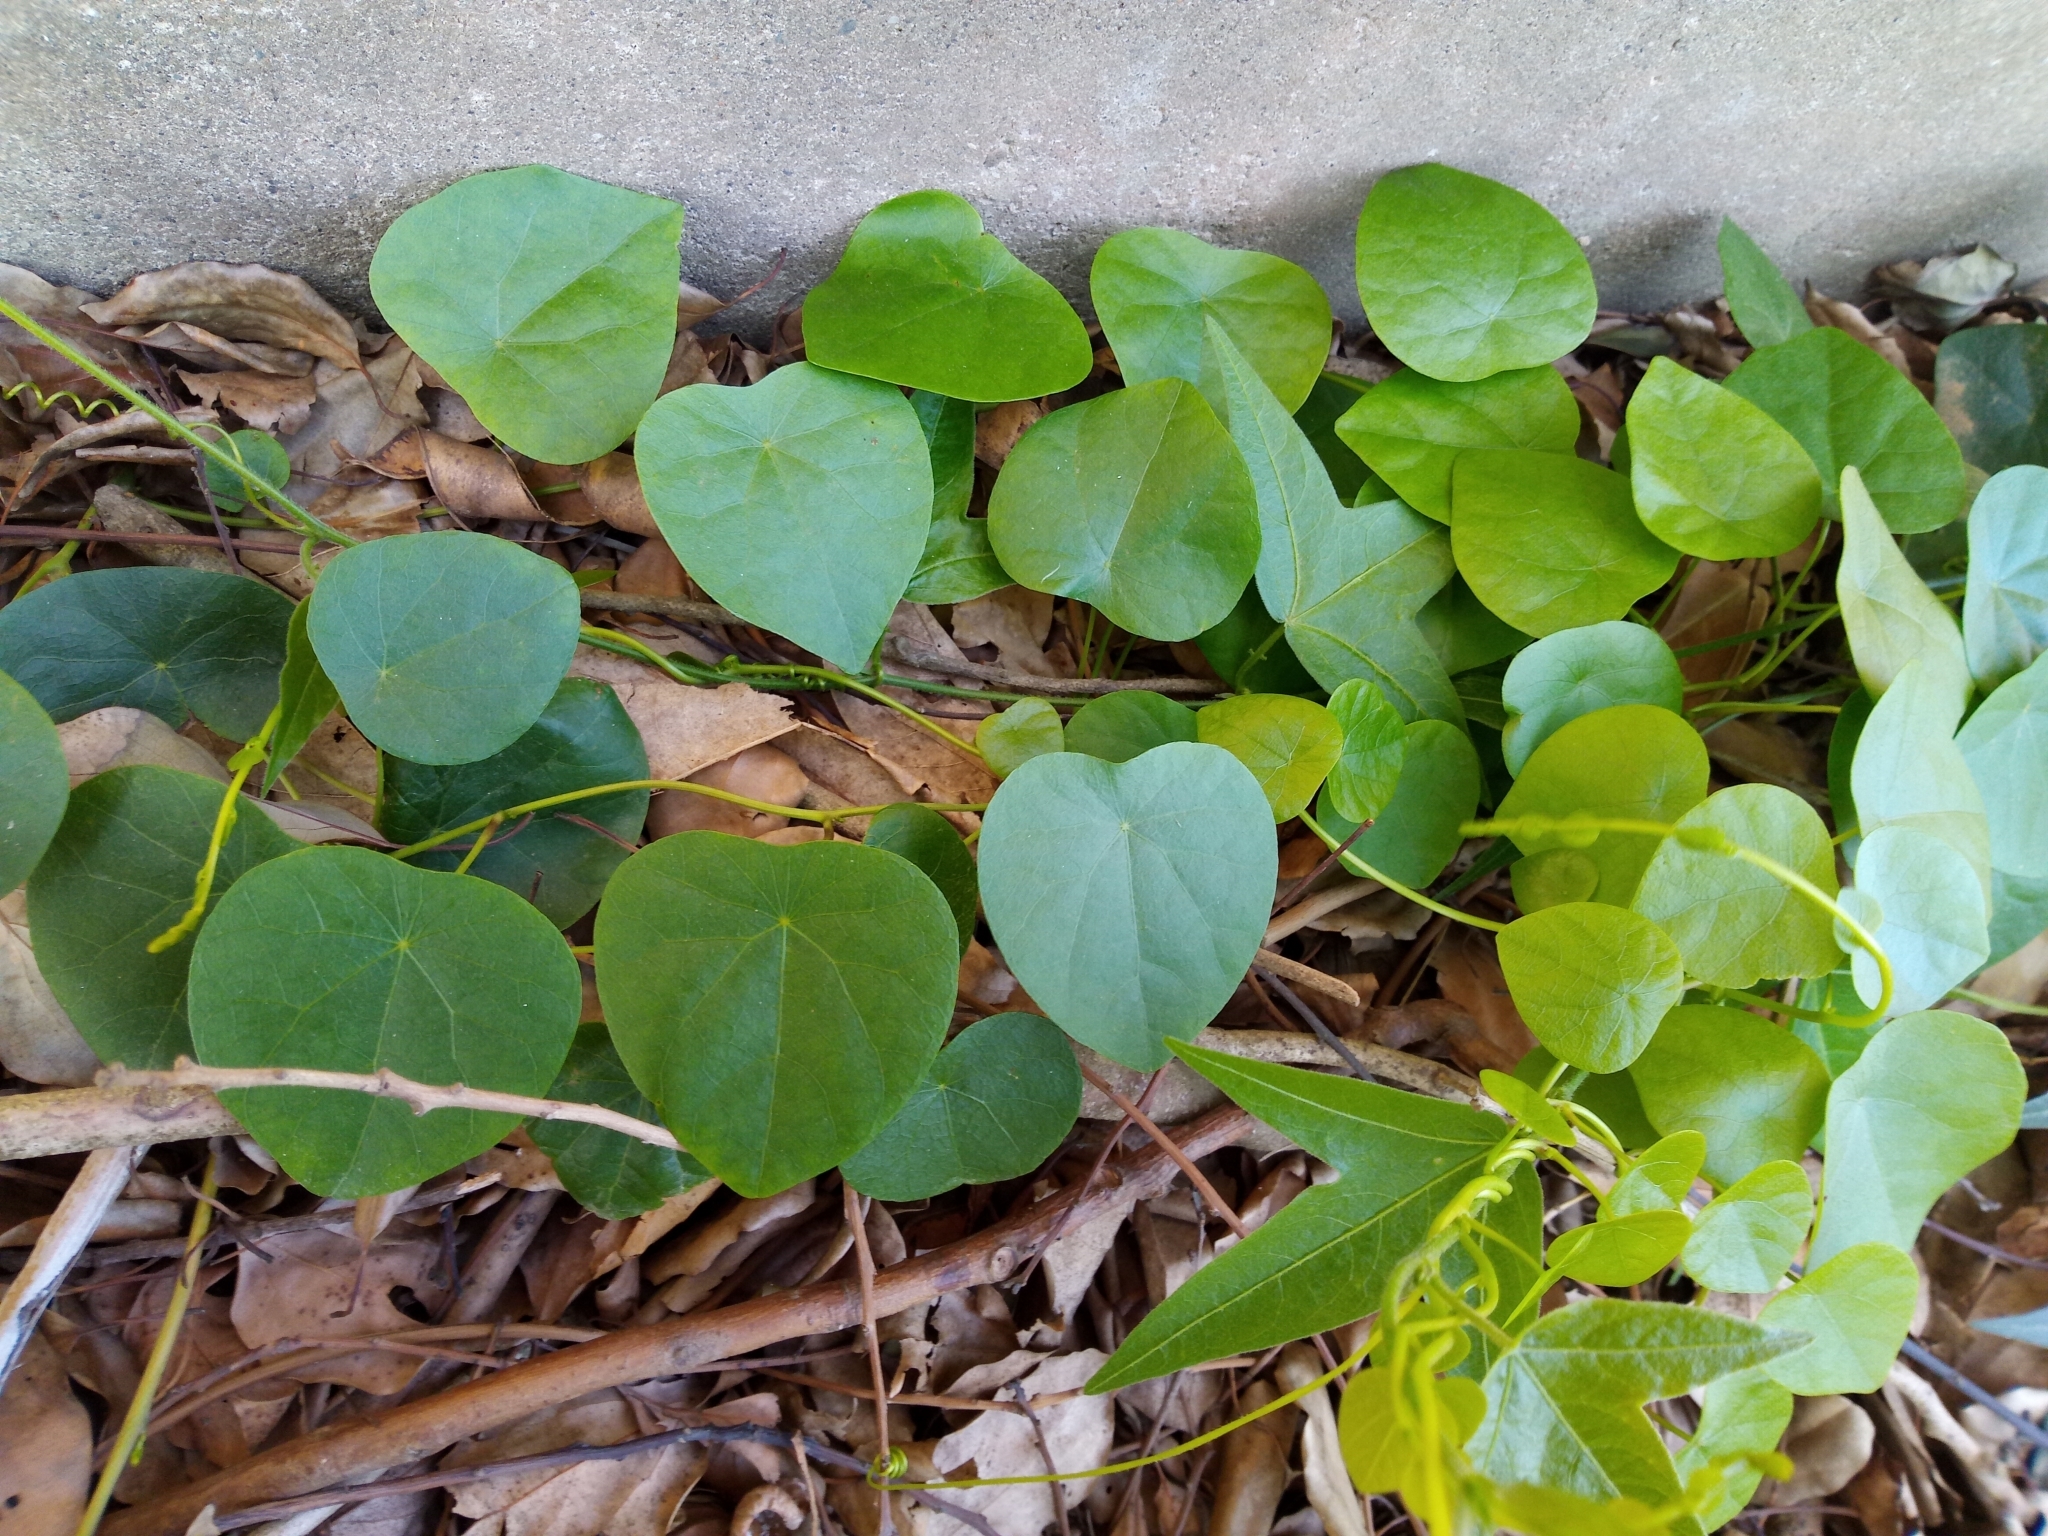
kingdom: Plantae
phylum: Tracheophyta
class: Magnoliopsida
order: Ranunculales
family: Menispermaceae
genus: Stephania
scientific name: Stephania japonica
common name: Snake vine
